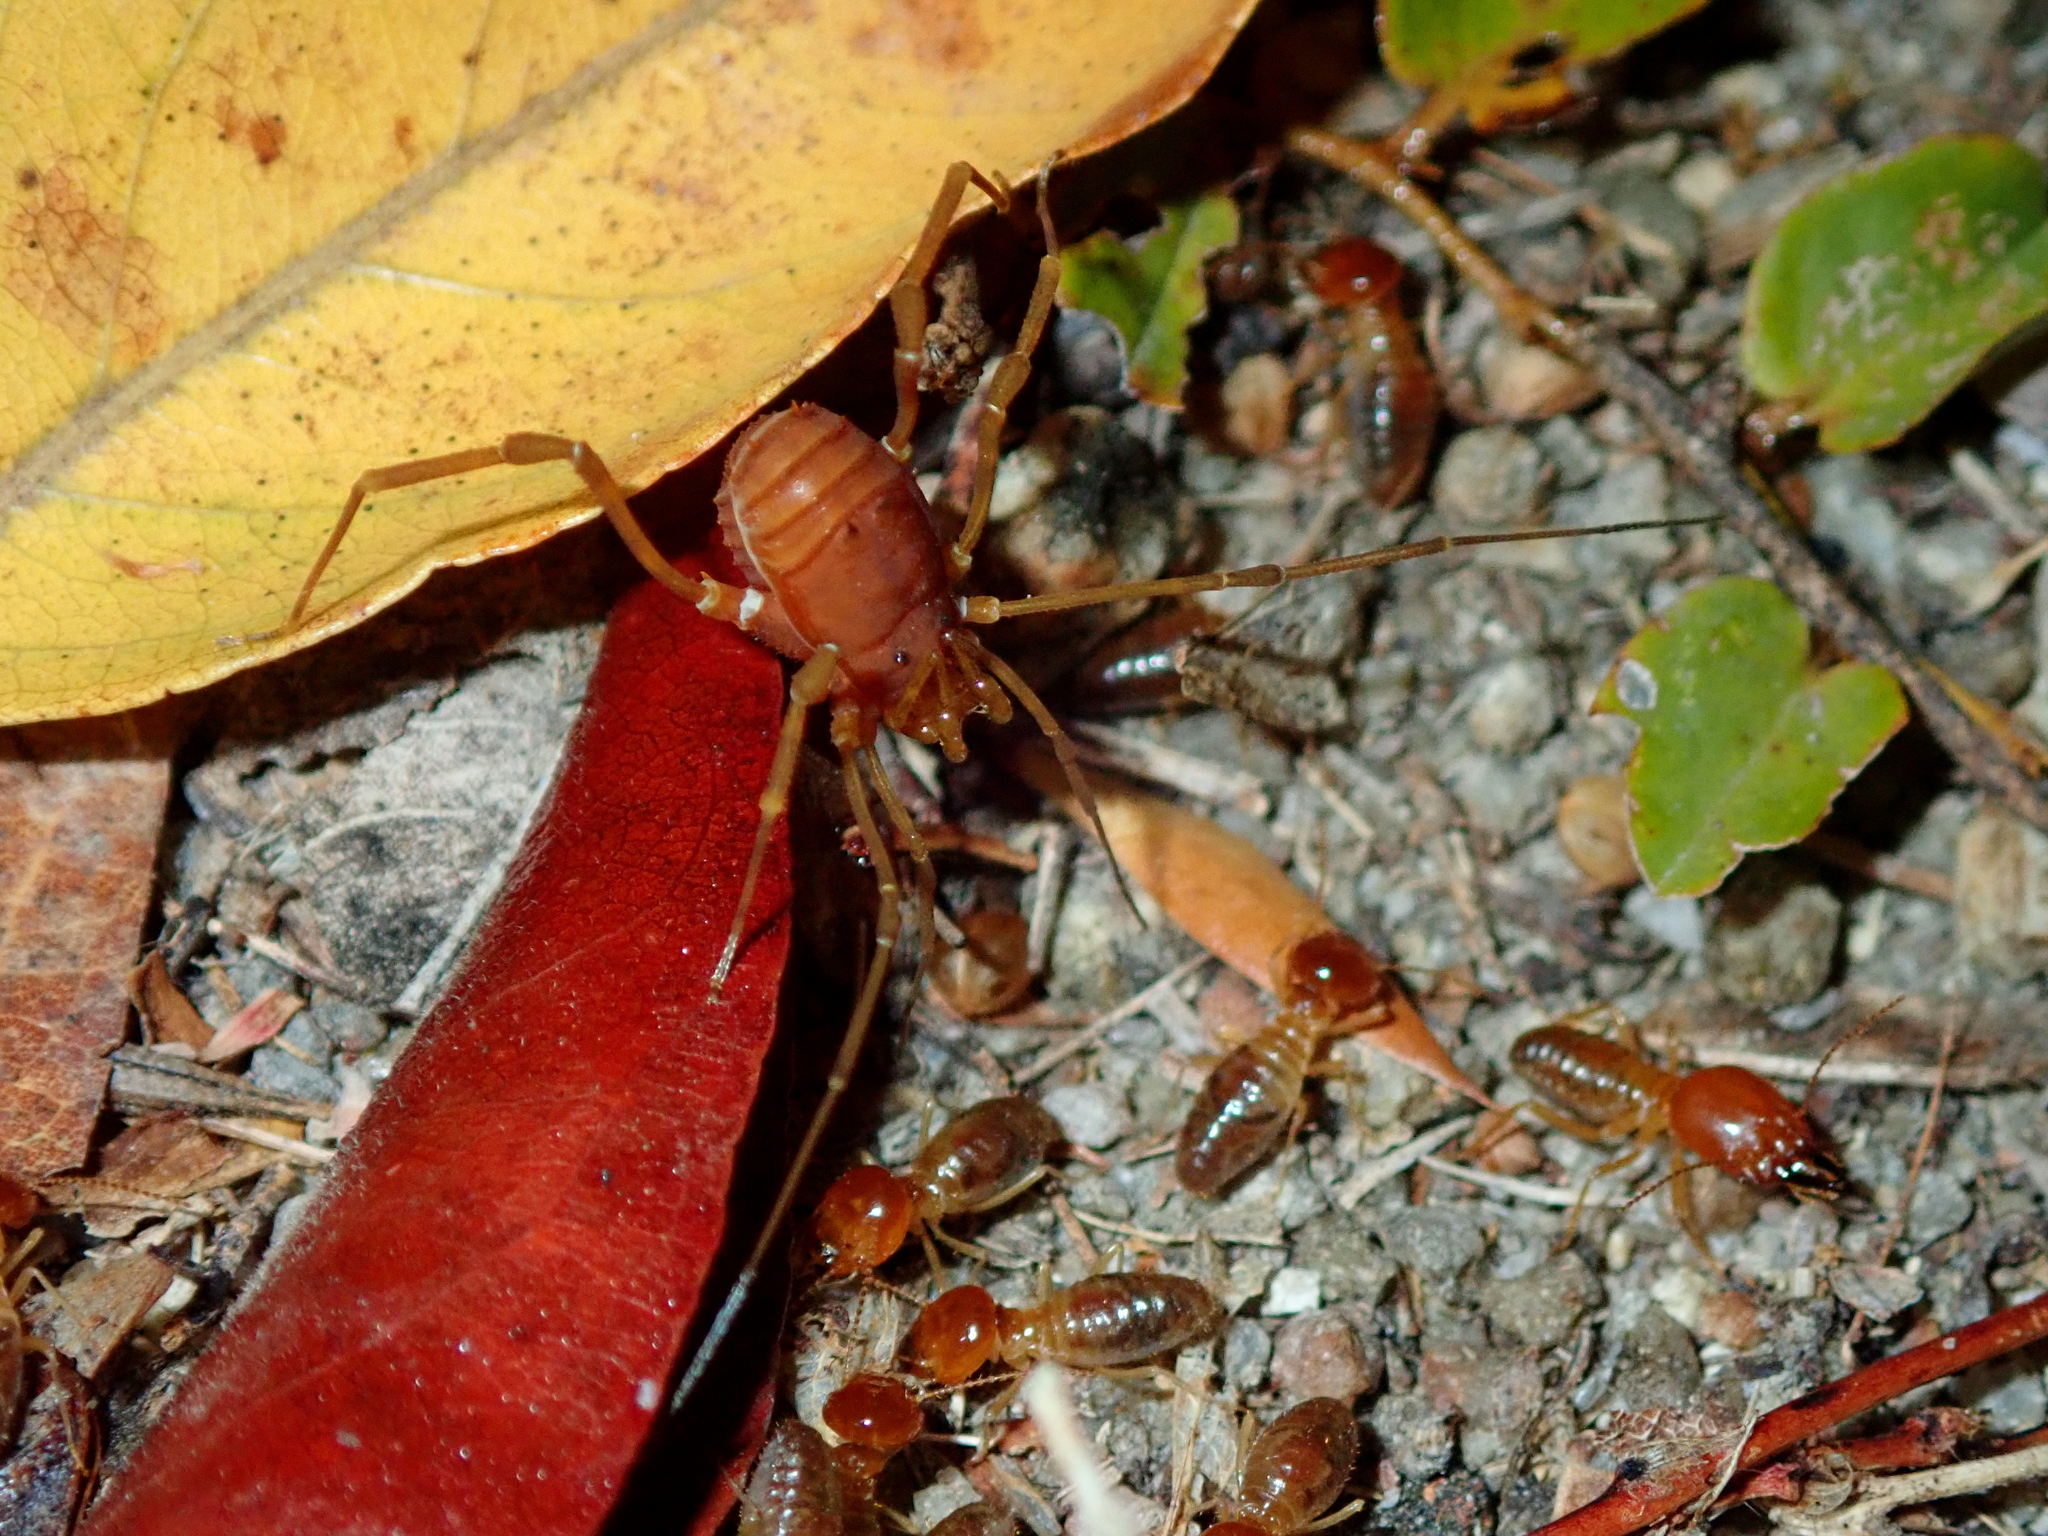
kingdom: Animalia
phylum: Arthropoda
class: Arachnida
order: Opiliones
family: Stygnidae
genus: Stygnus
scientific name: Stygnus polyacanthus
